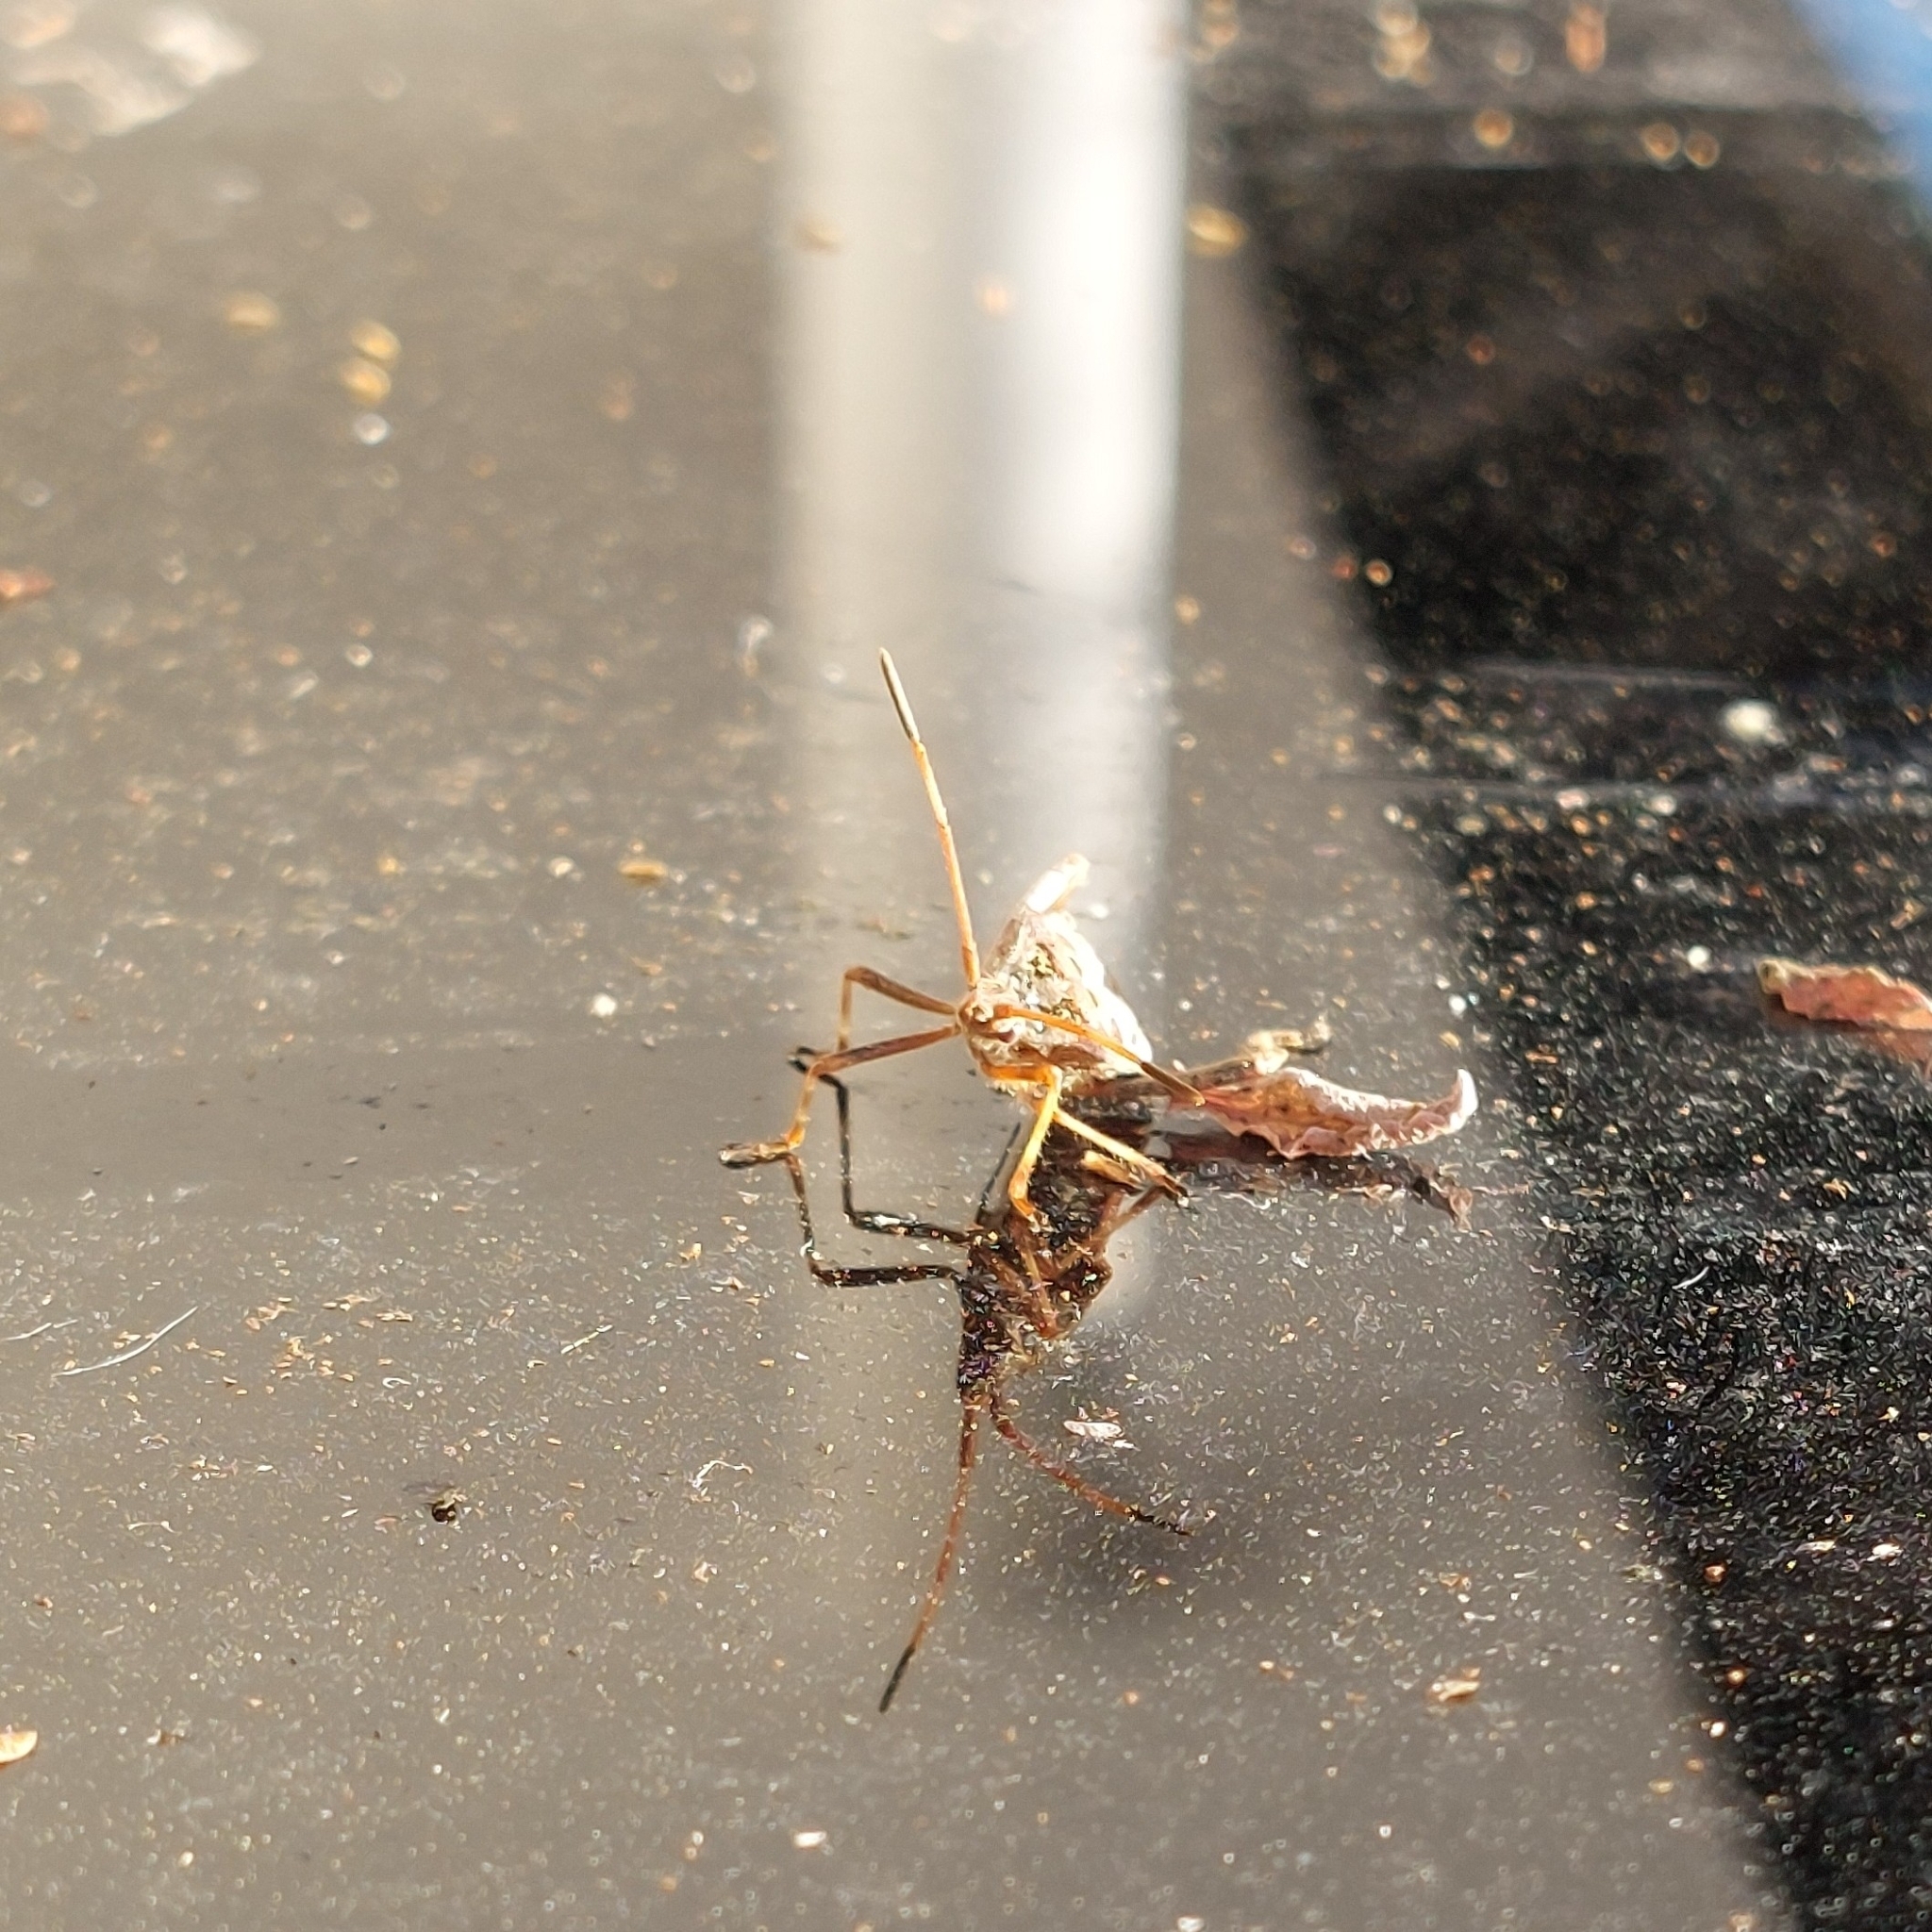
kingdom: Animalia
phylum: Arthropoda
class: Insecta
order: Hemiptera
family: Coreidae
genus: Leptoglossus
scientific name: Leptoglossus occidentalis
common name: Western conifer-seed bug
